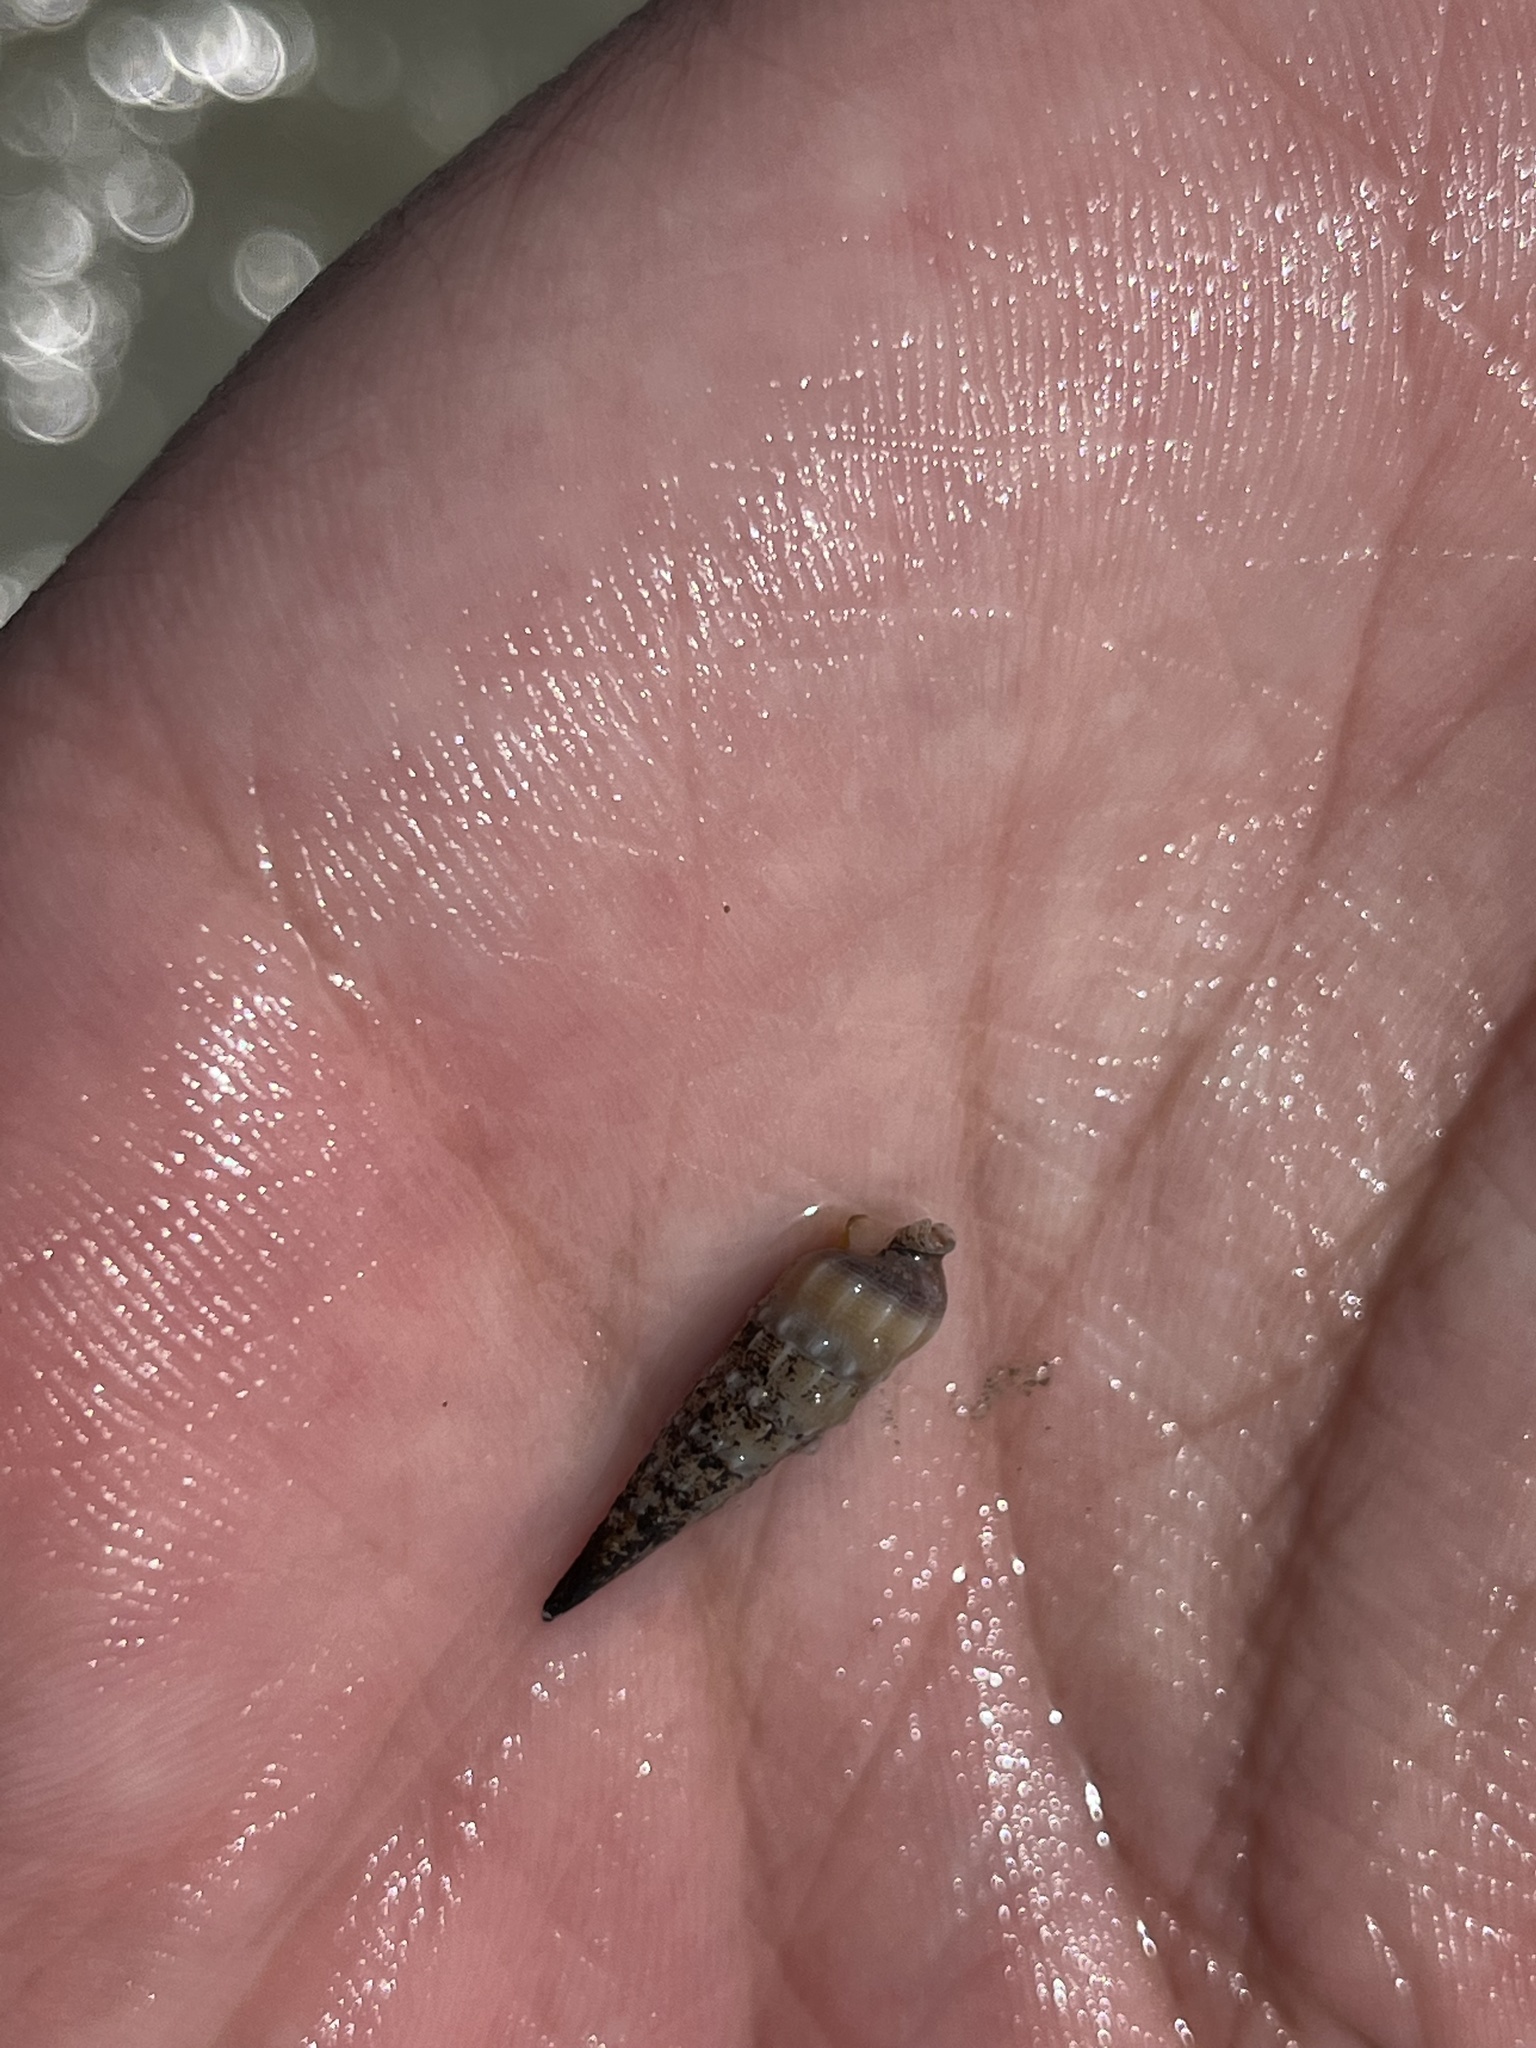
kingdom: Animalia
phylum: Mollusca
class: Gastropoda
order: Neogastropoda
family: Terebridae
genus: Neoterebra
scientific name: Neoterebra dislocata
